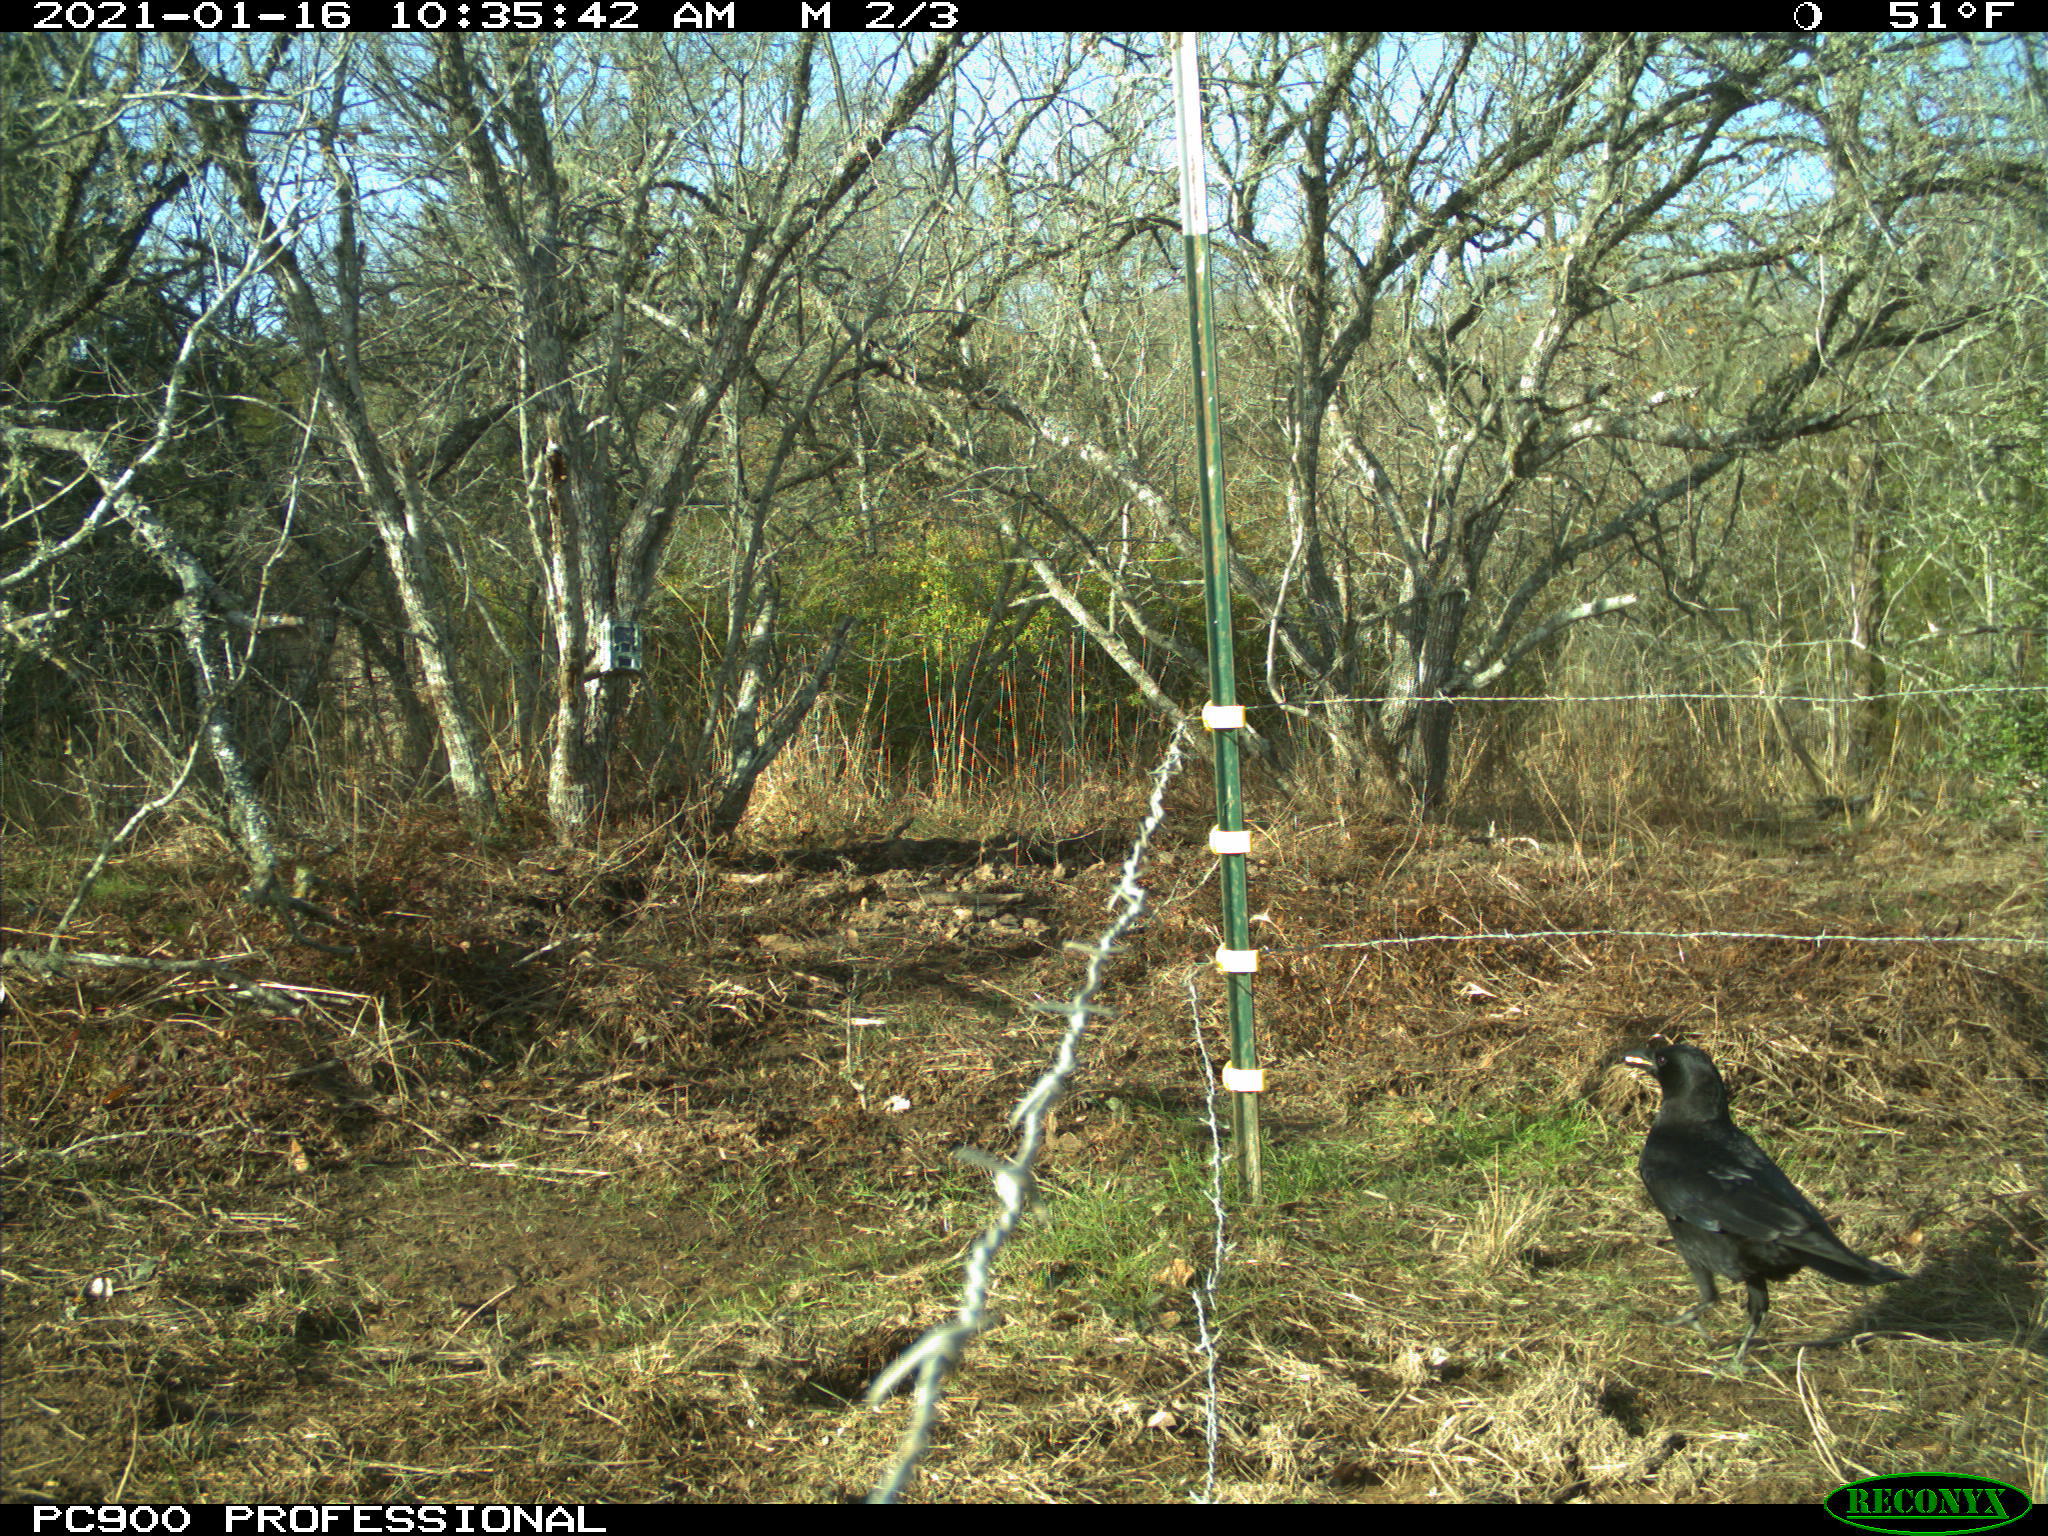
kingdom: Animalia
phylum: Chordata
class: Aves
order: Passeriformes
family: Corvidae
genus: Corvus
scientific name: Corvus brachyrhynchos
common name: American crow
